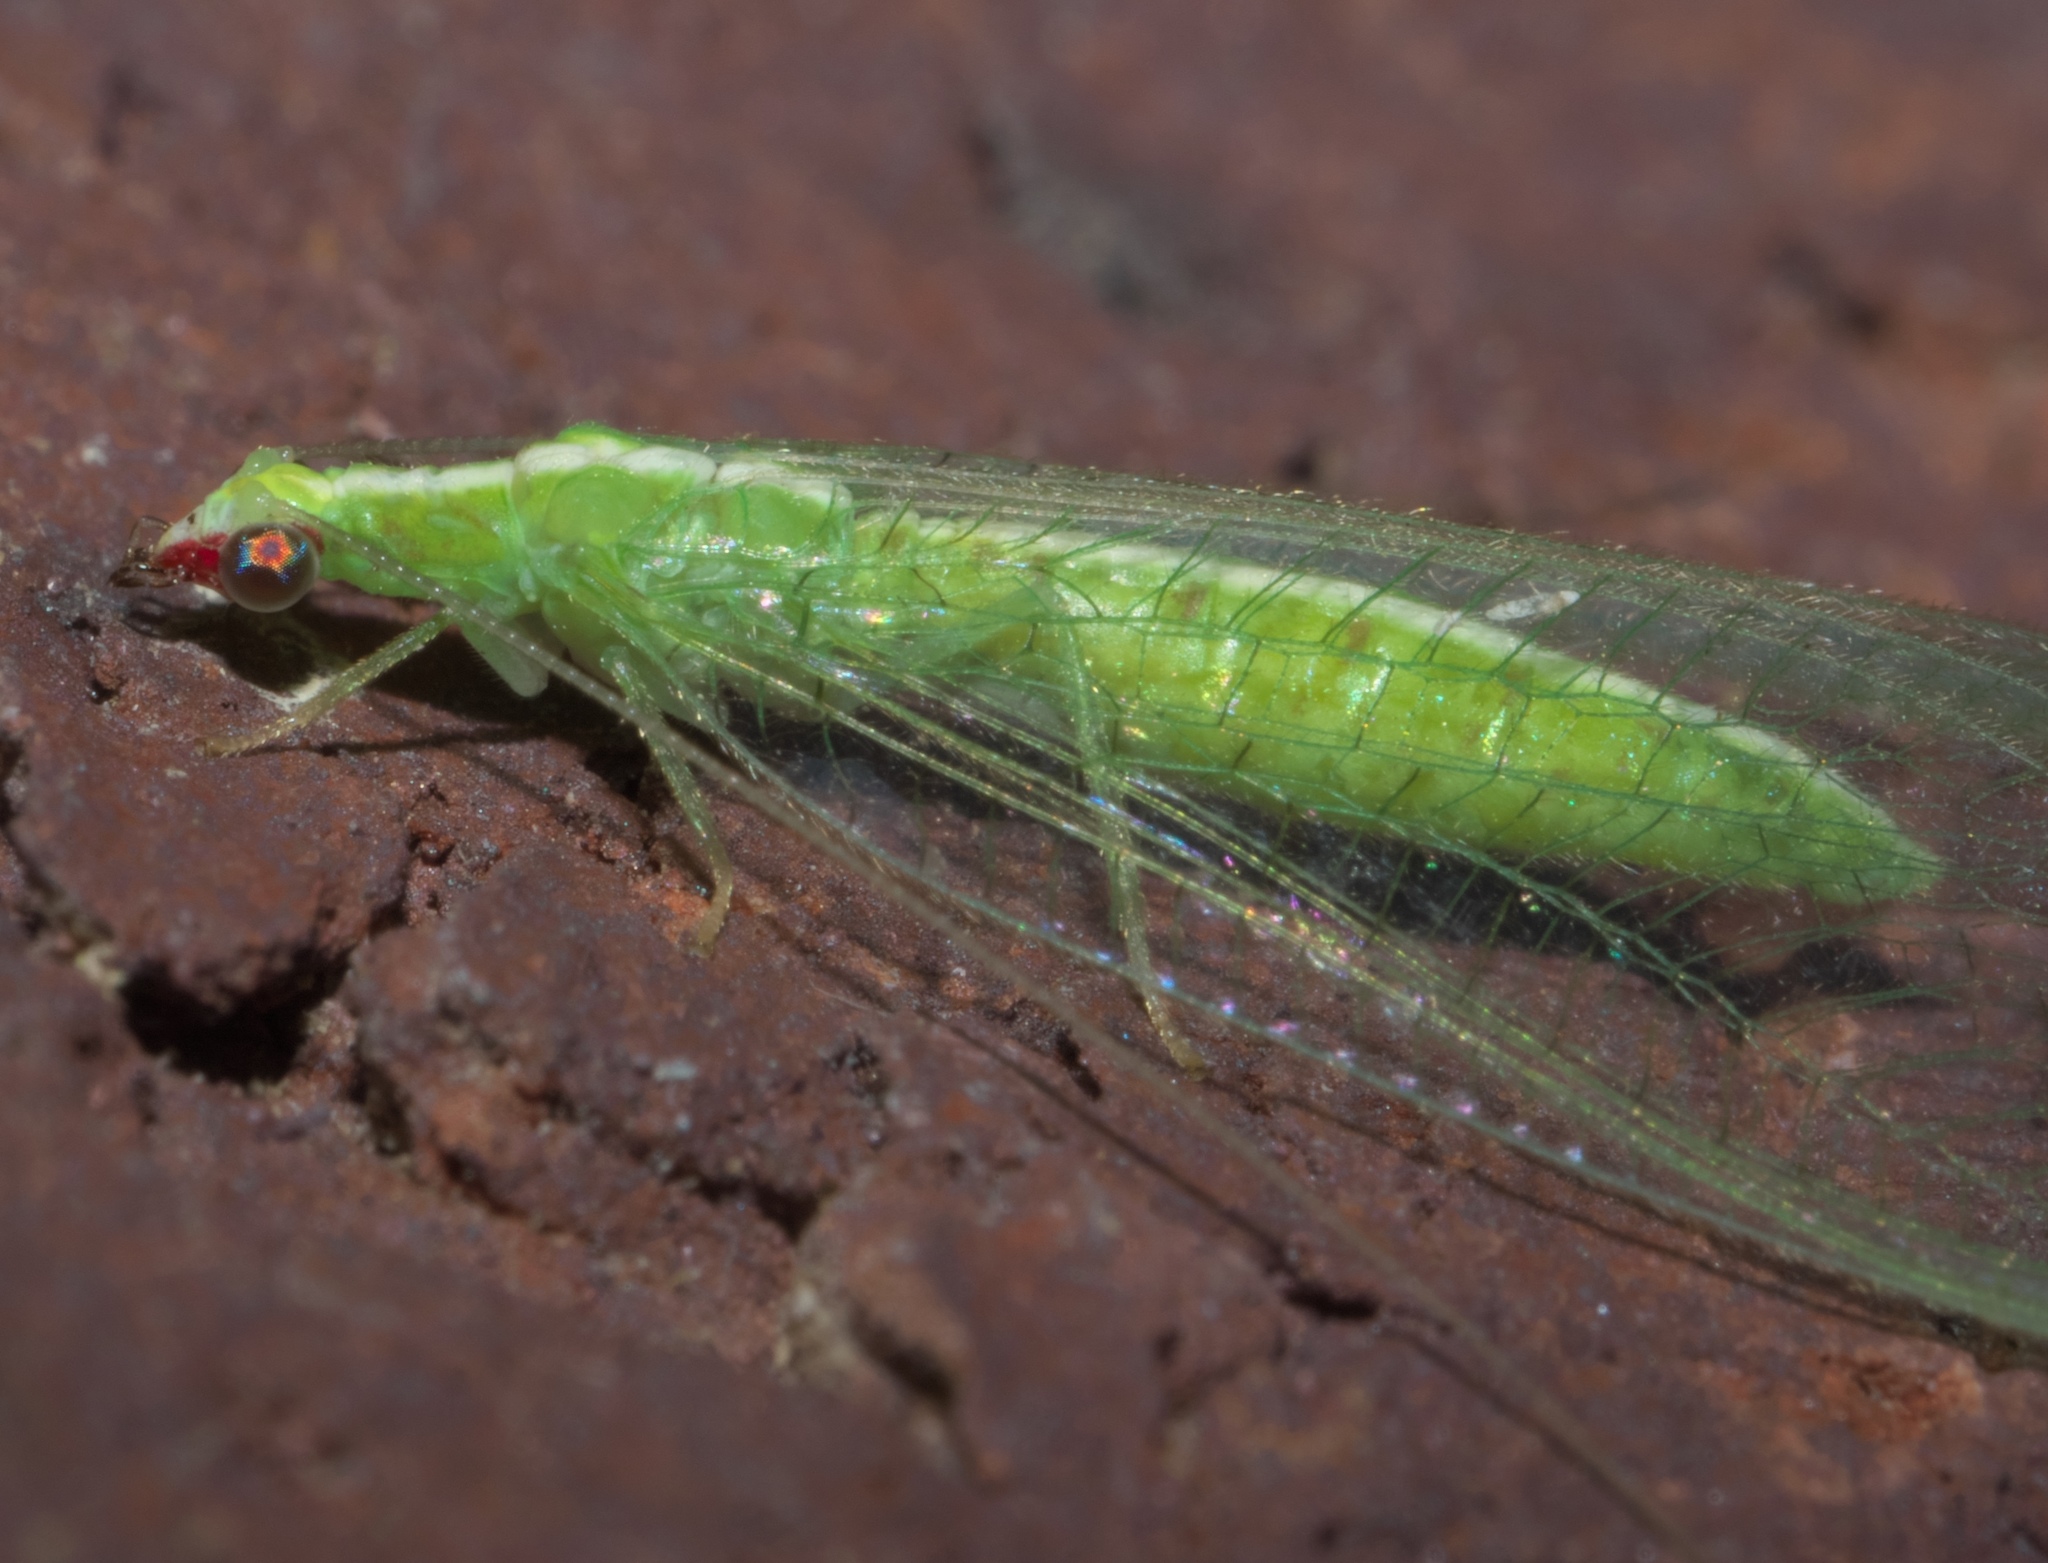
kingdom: Animalia
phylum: Arthropoda
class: Insecta
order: Neuroptera
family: Chrysopidae
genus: Chrysoperla
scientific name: Chrysoperla rufilabris
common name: Red-lipped green lacewing
